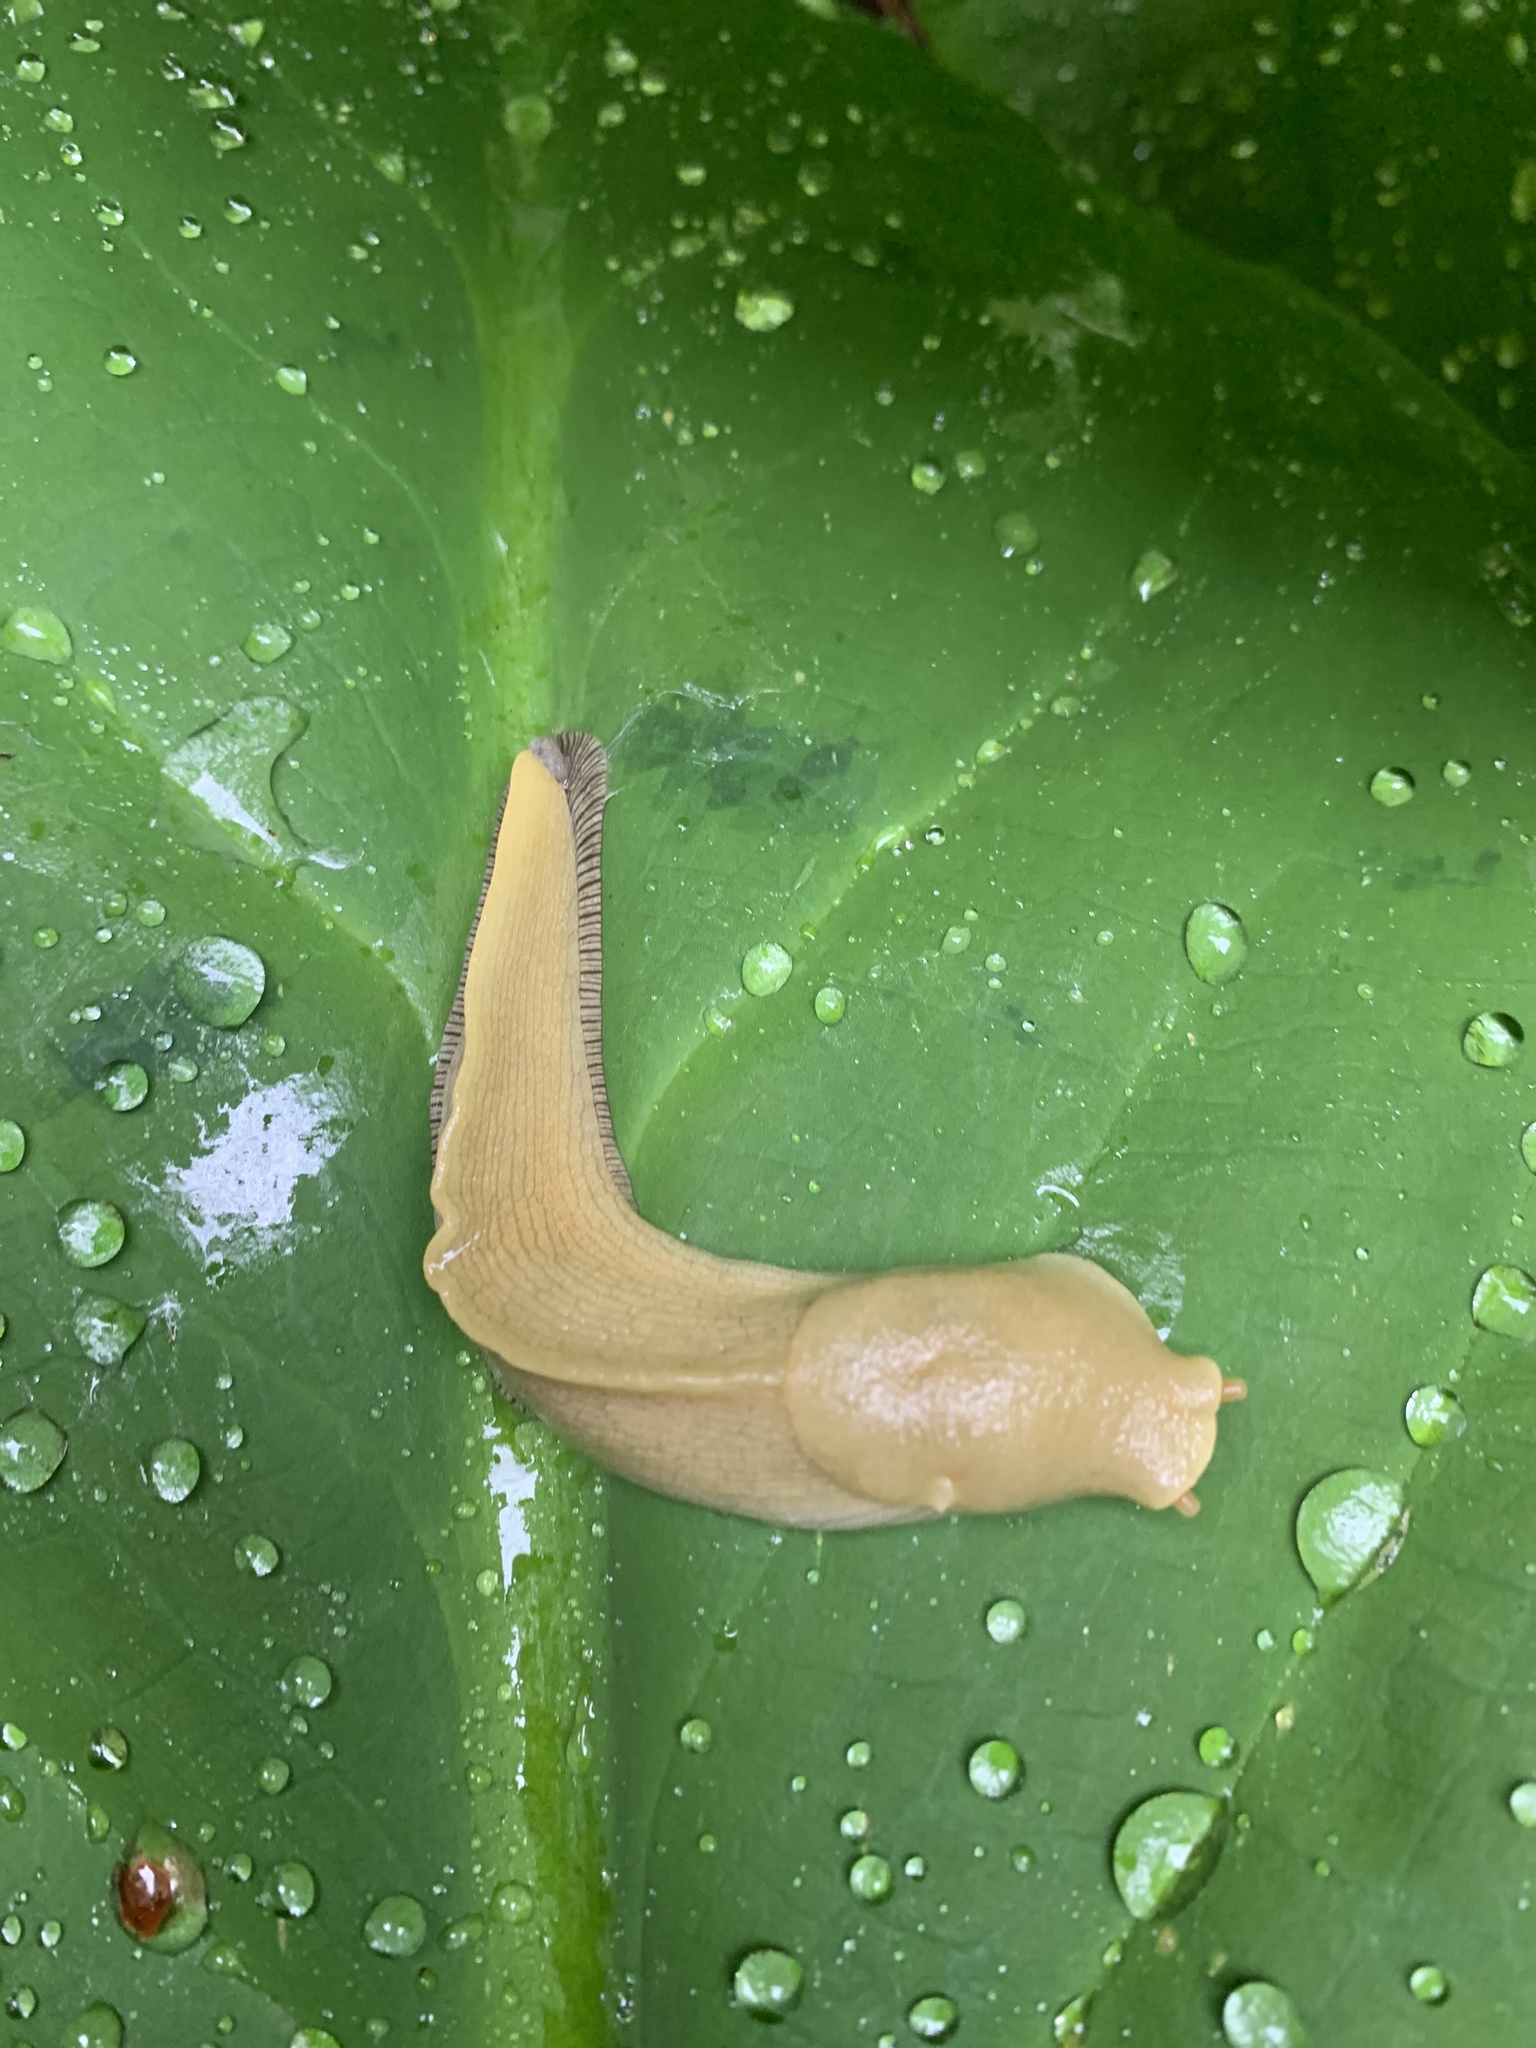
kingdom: Animalia
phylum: Mollusca
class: Gastropoda
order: Stylommatophora
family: Ariolimacidae
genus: Ariolimax
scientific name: Ariolimax columbianus
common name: Pacific banana slug
